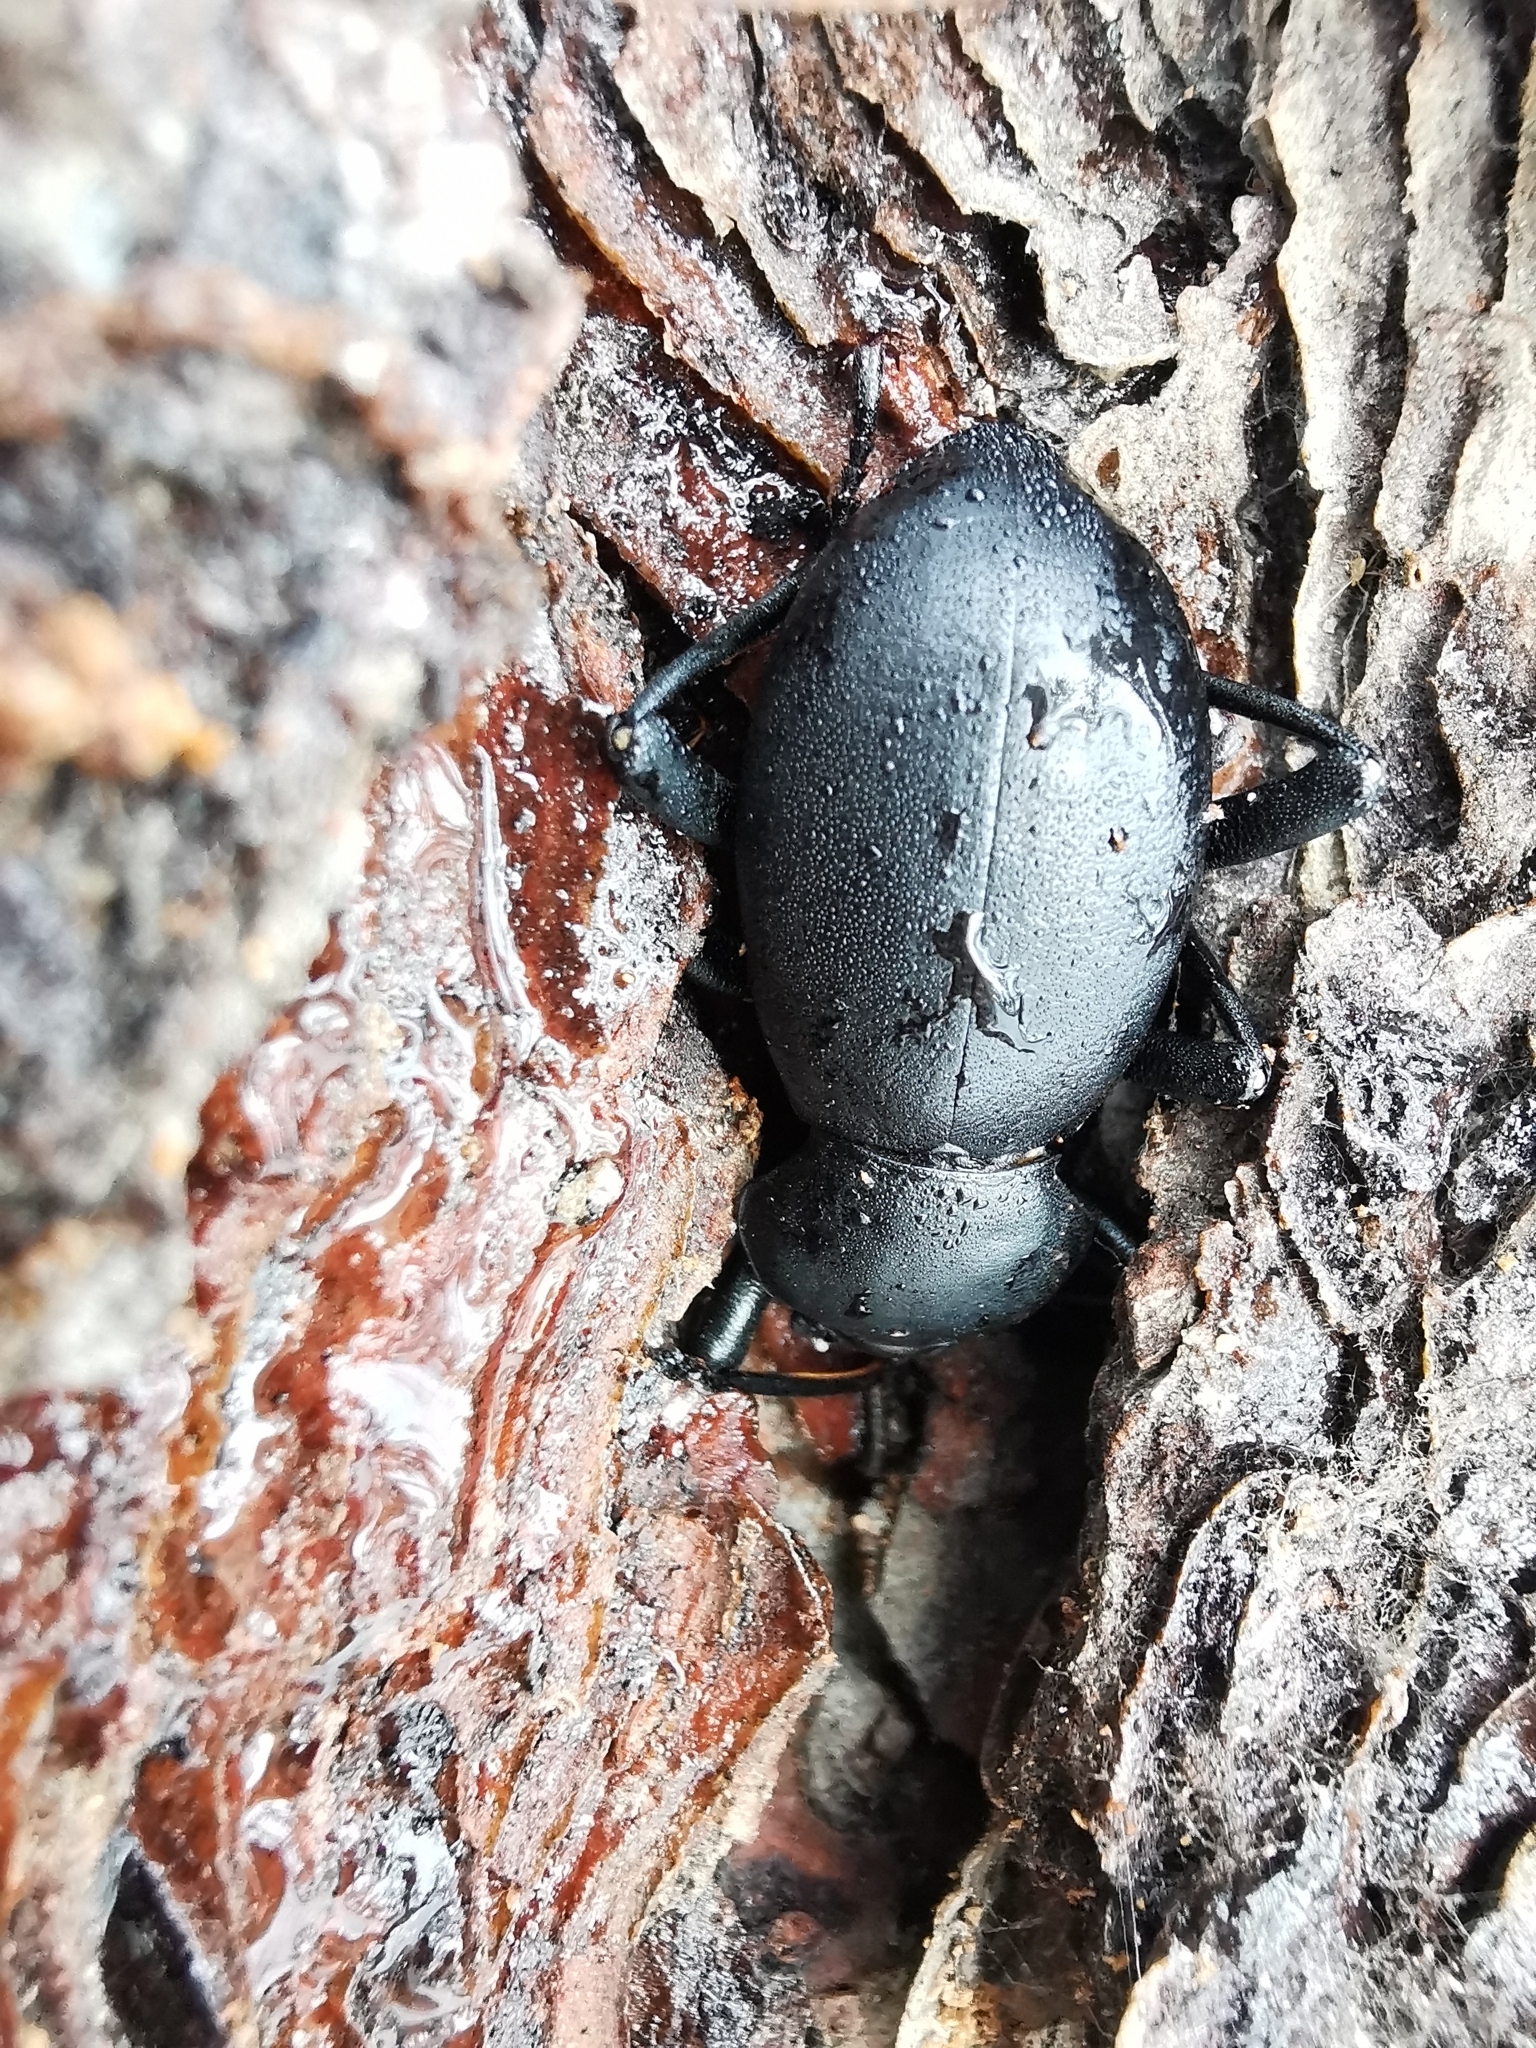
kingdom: Animalia
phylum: Arthropoda
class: Insecta
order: Coleoptera
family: Tenebrionidae
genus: Coelocnemis
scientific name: Coelocnemis dilaticollis
